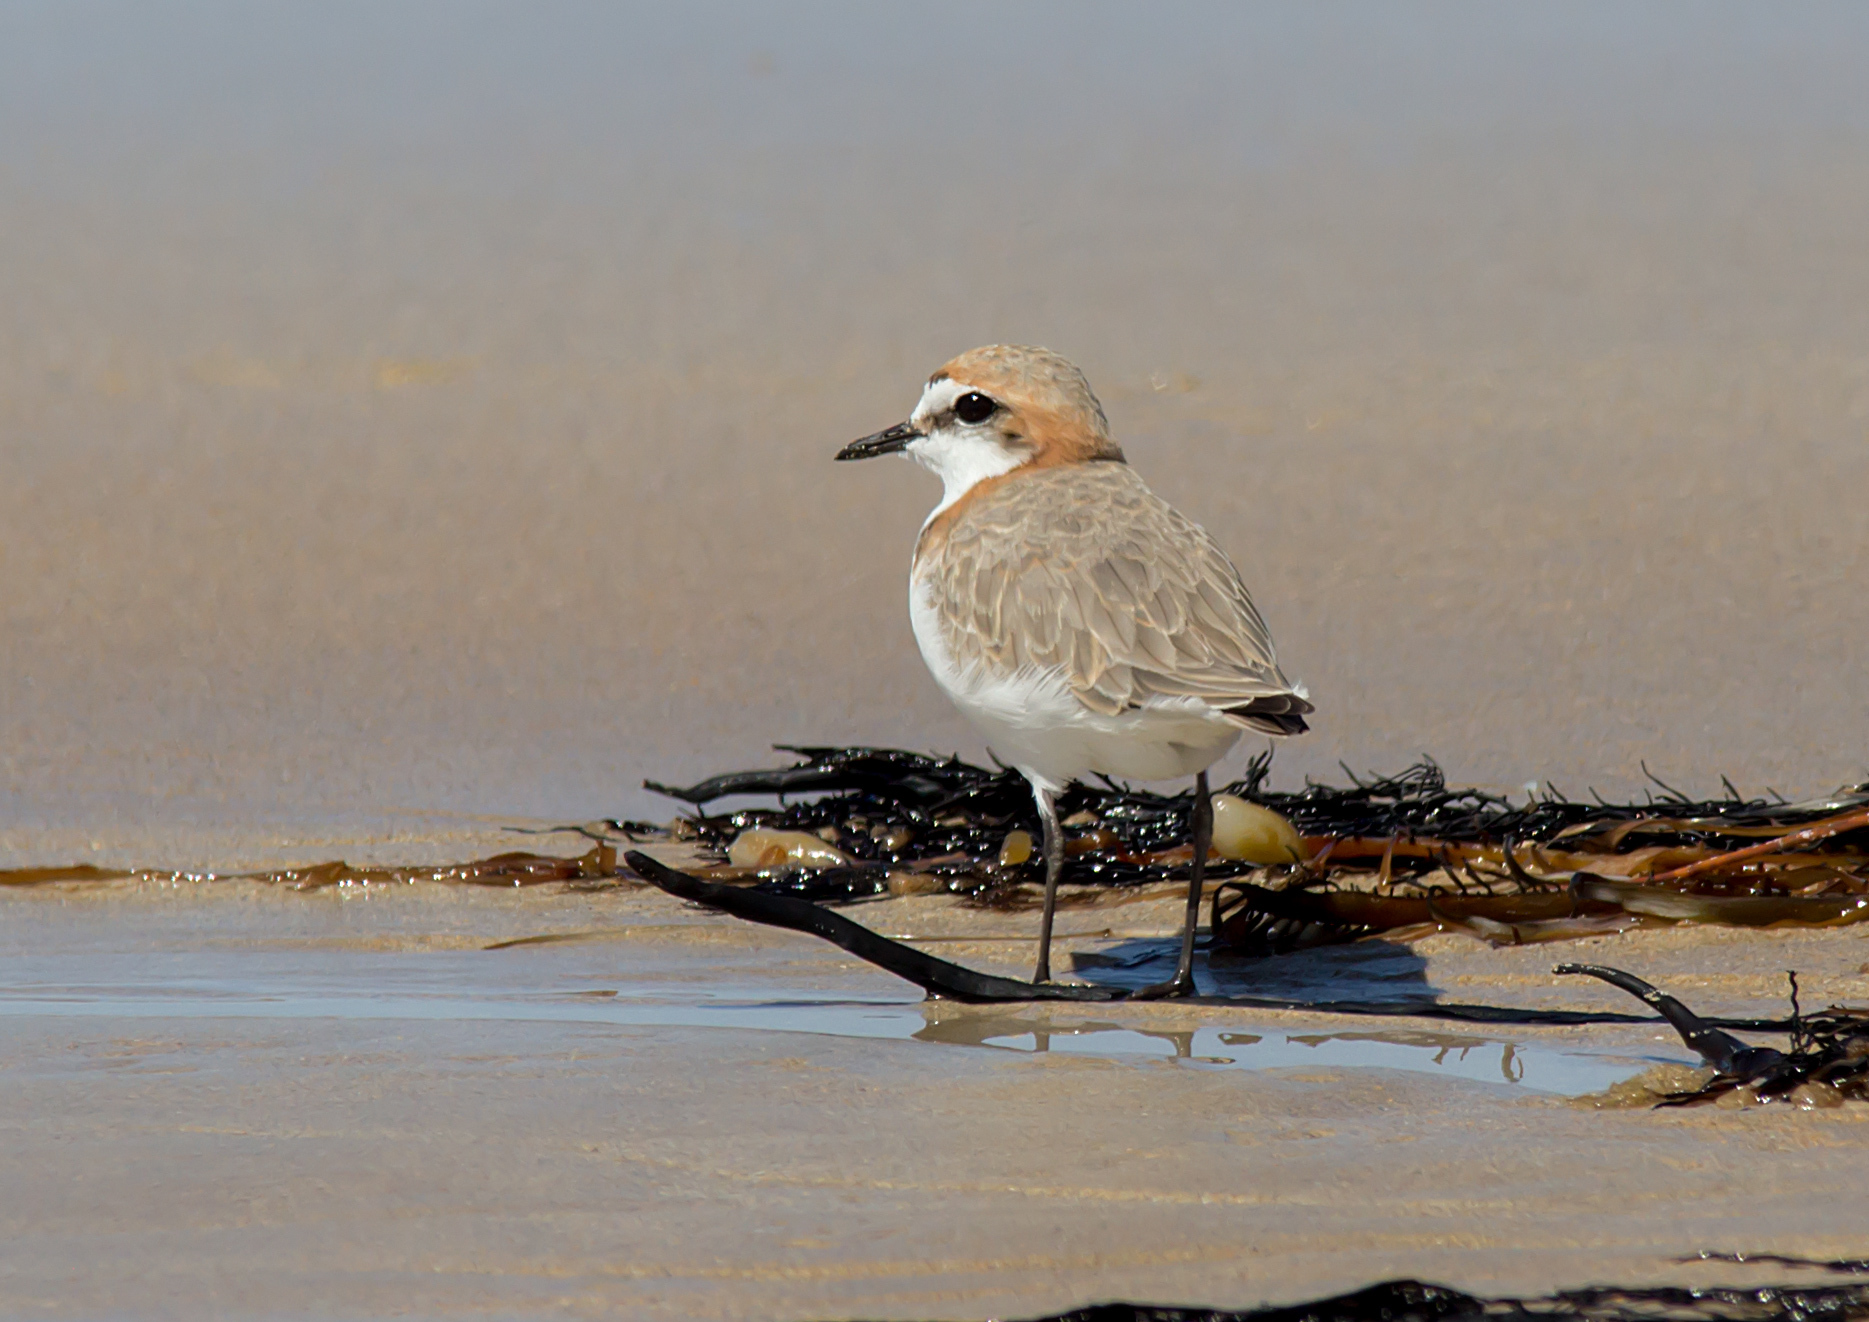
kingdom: Animalia
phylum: Chordata
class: Aves
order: Charadriiformes
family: Charadriidae
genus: Anarhynchus
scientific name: Anarhynchus
